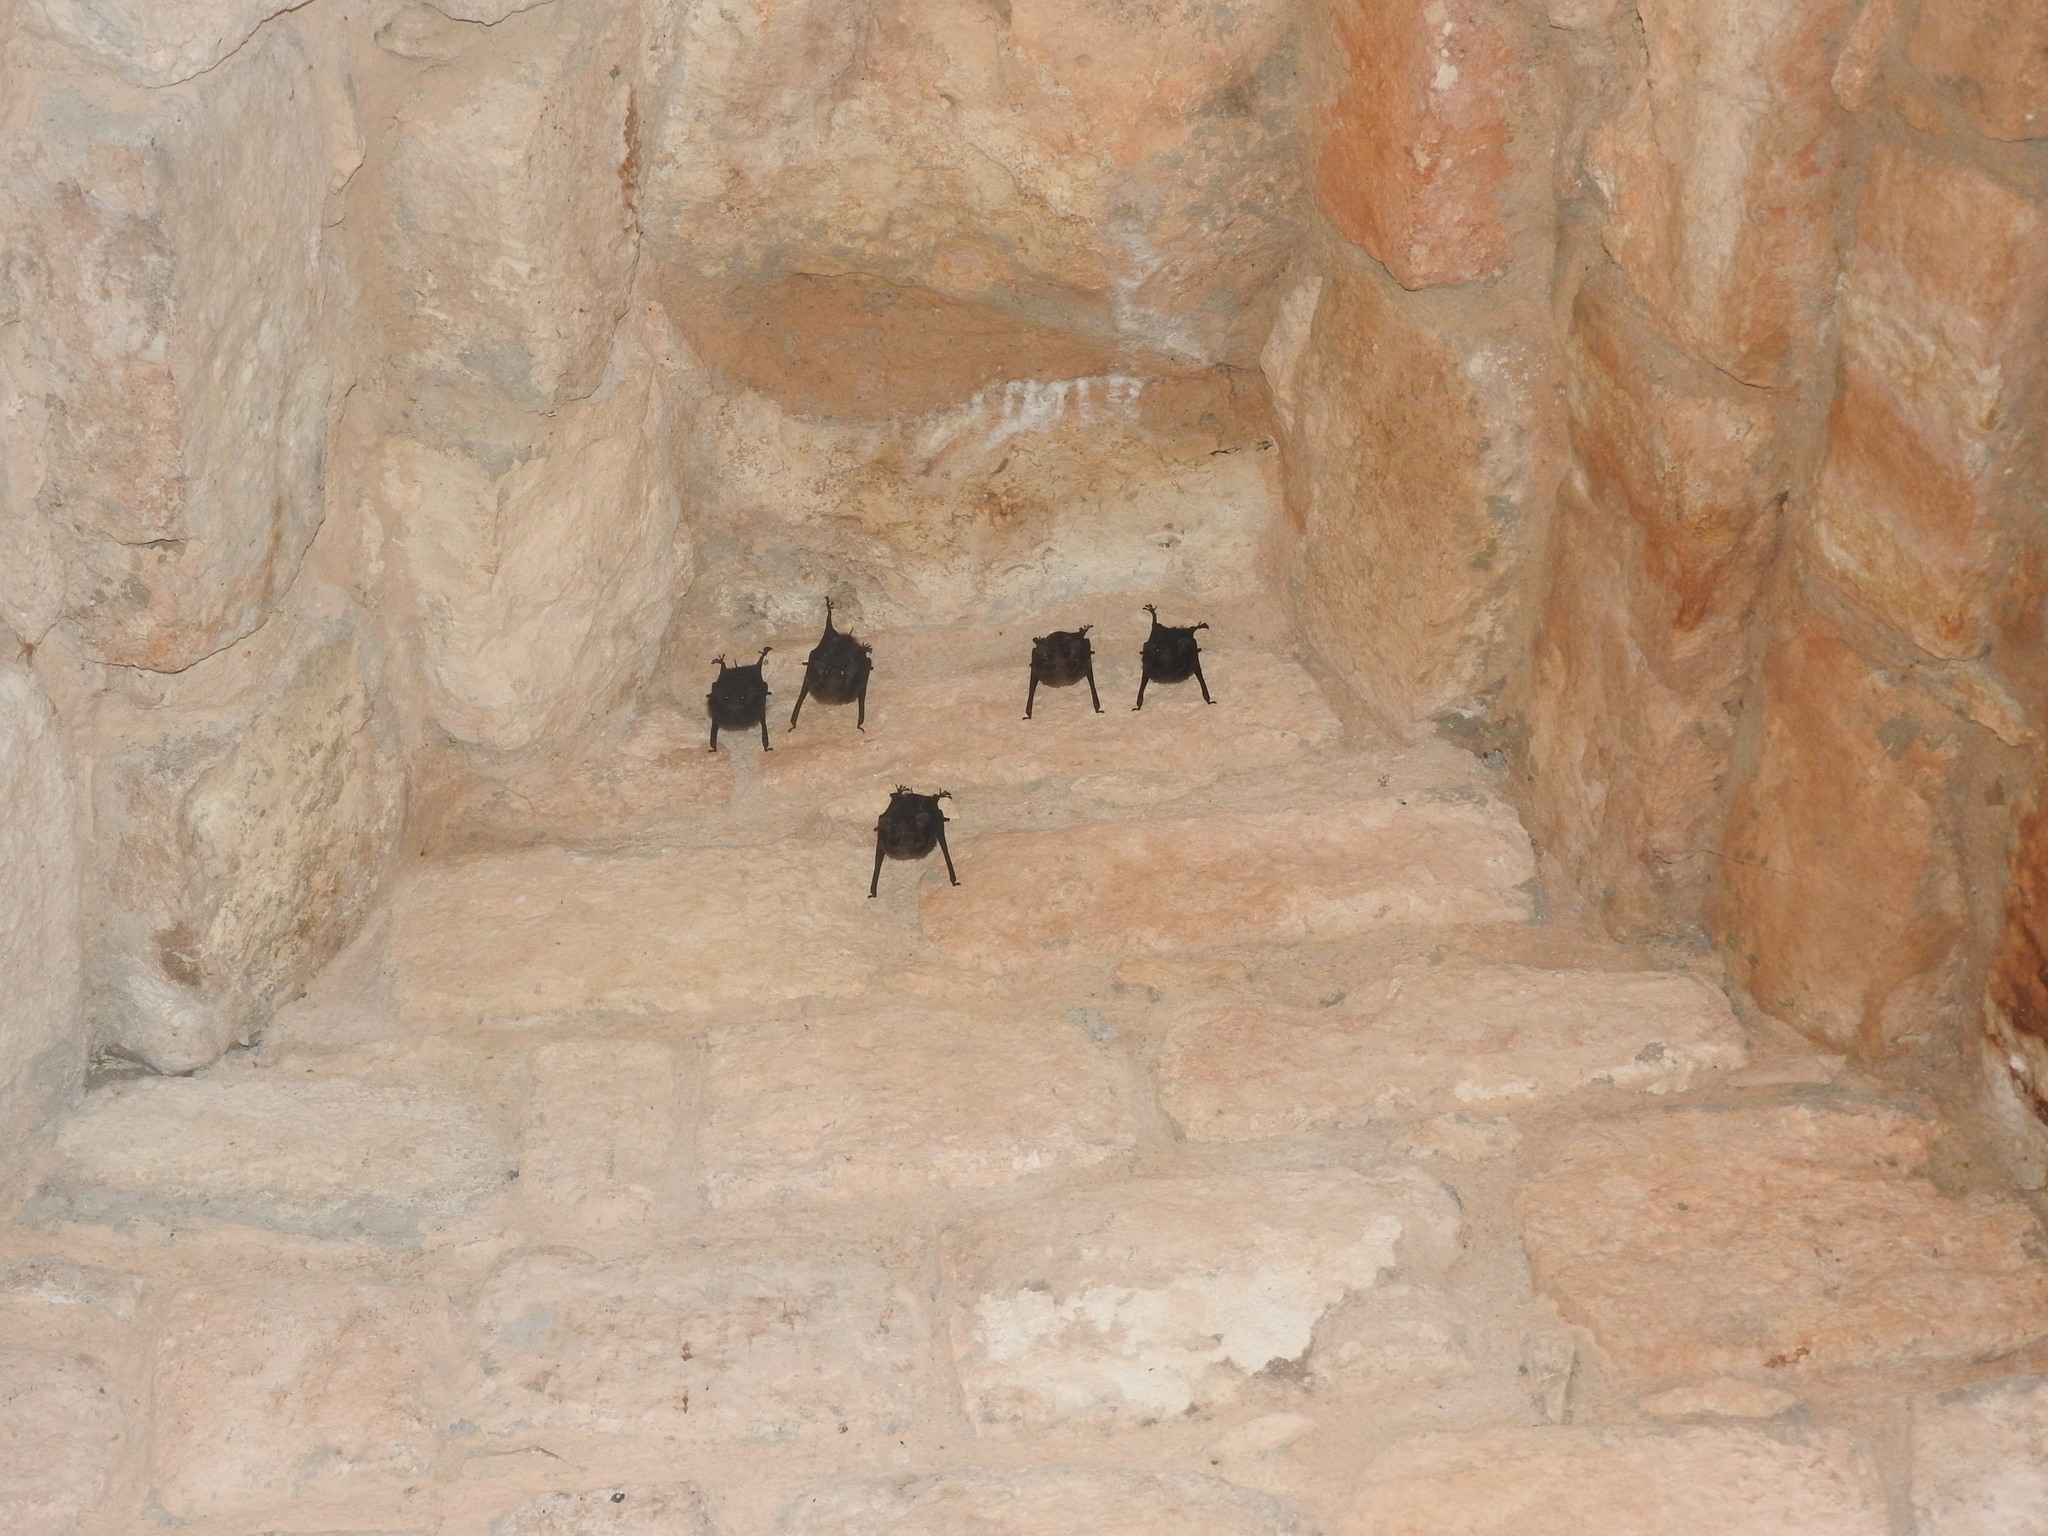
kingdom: Animalia
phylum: Chordata
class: Mammalia
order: Chiroptera
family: Emballonuridae
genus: Saccopteryx
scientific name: Saccopteryx bilineata
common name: Greater sac-winged bat
